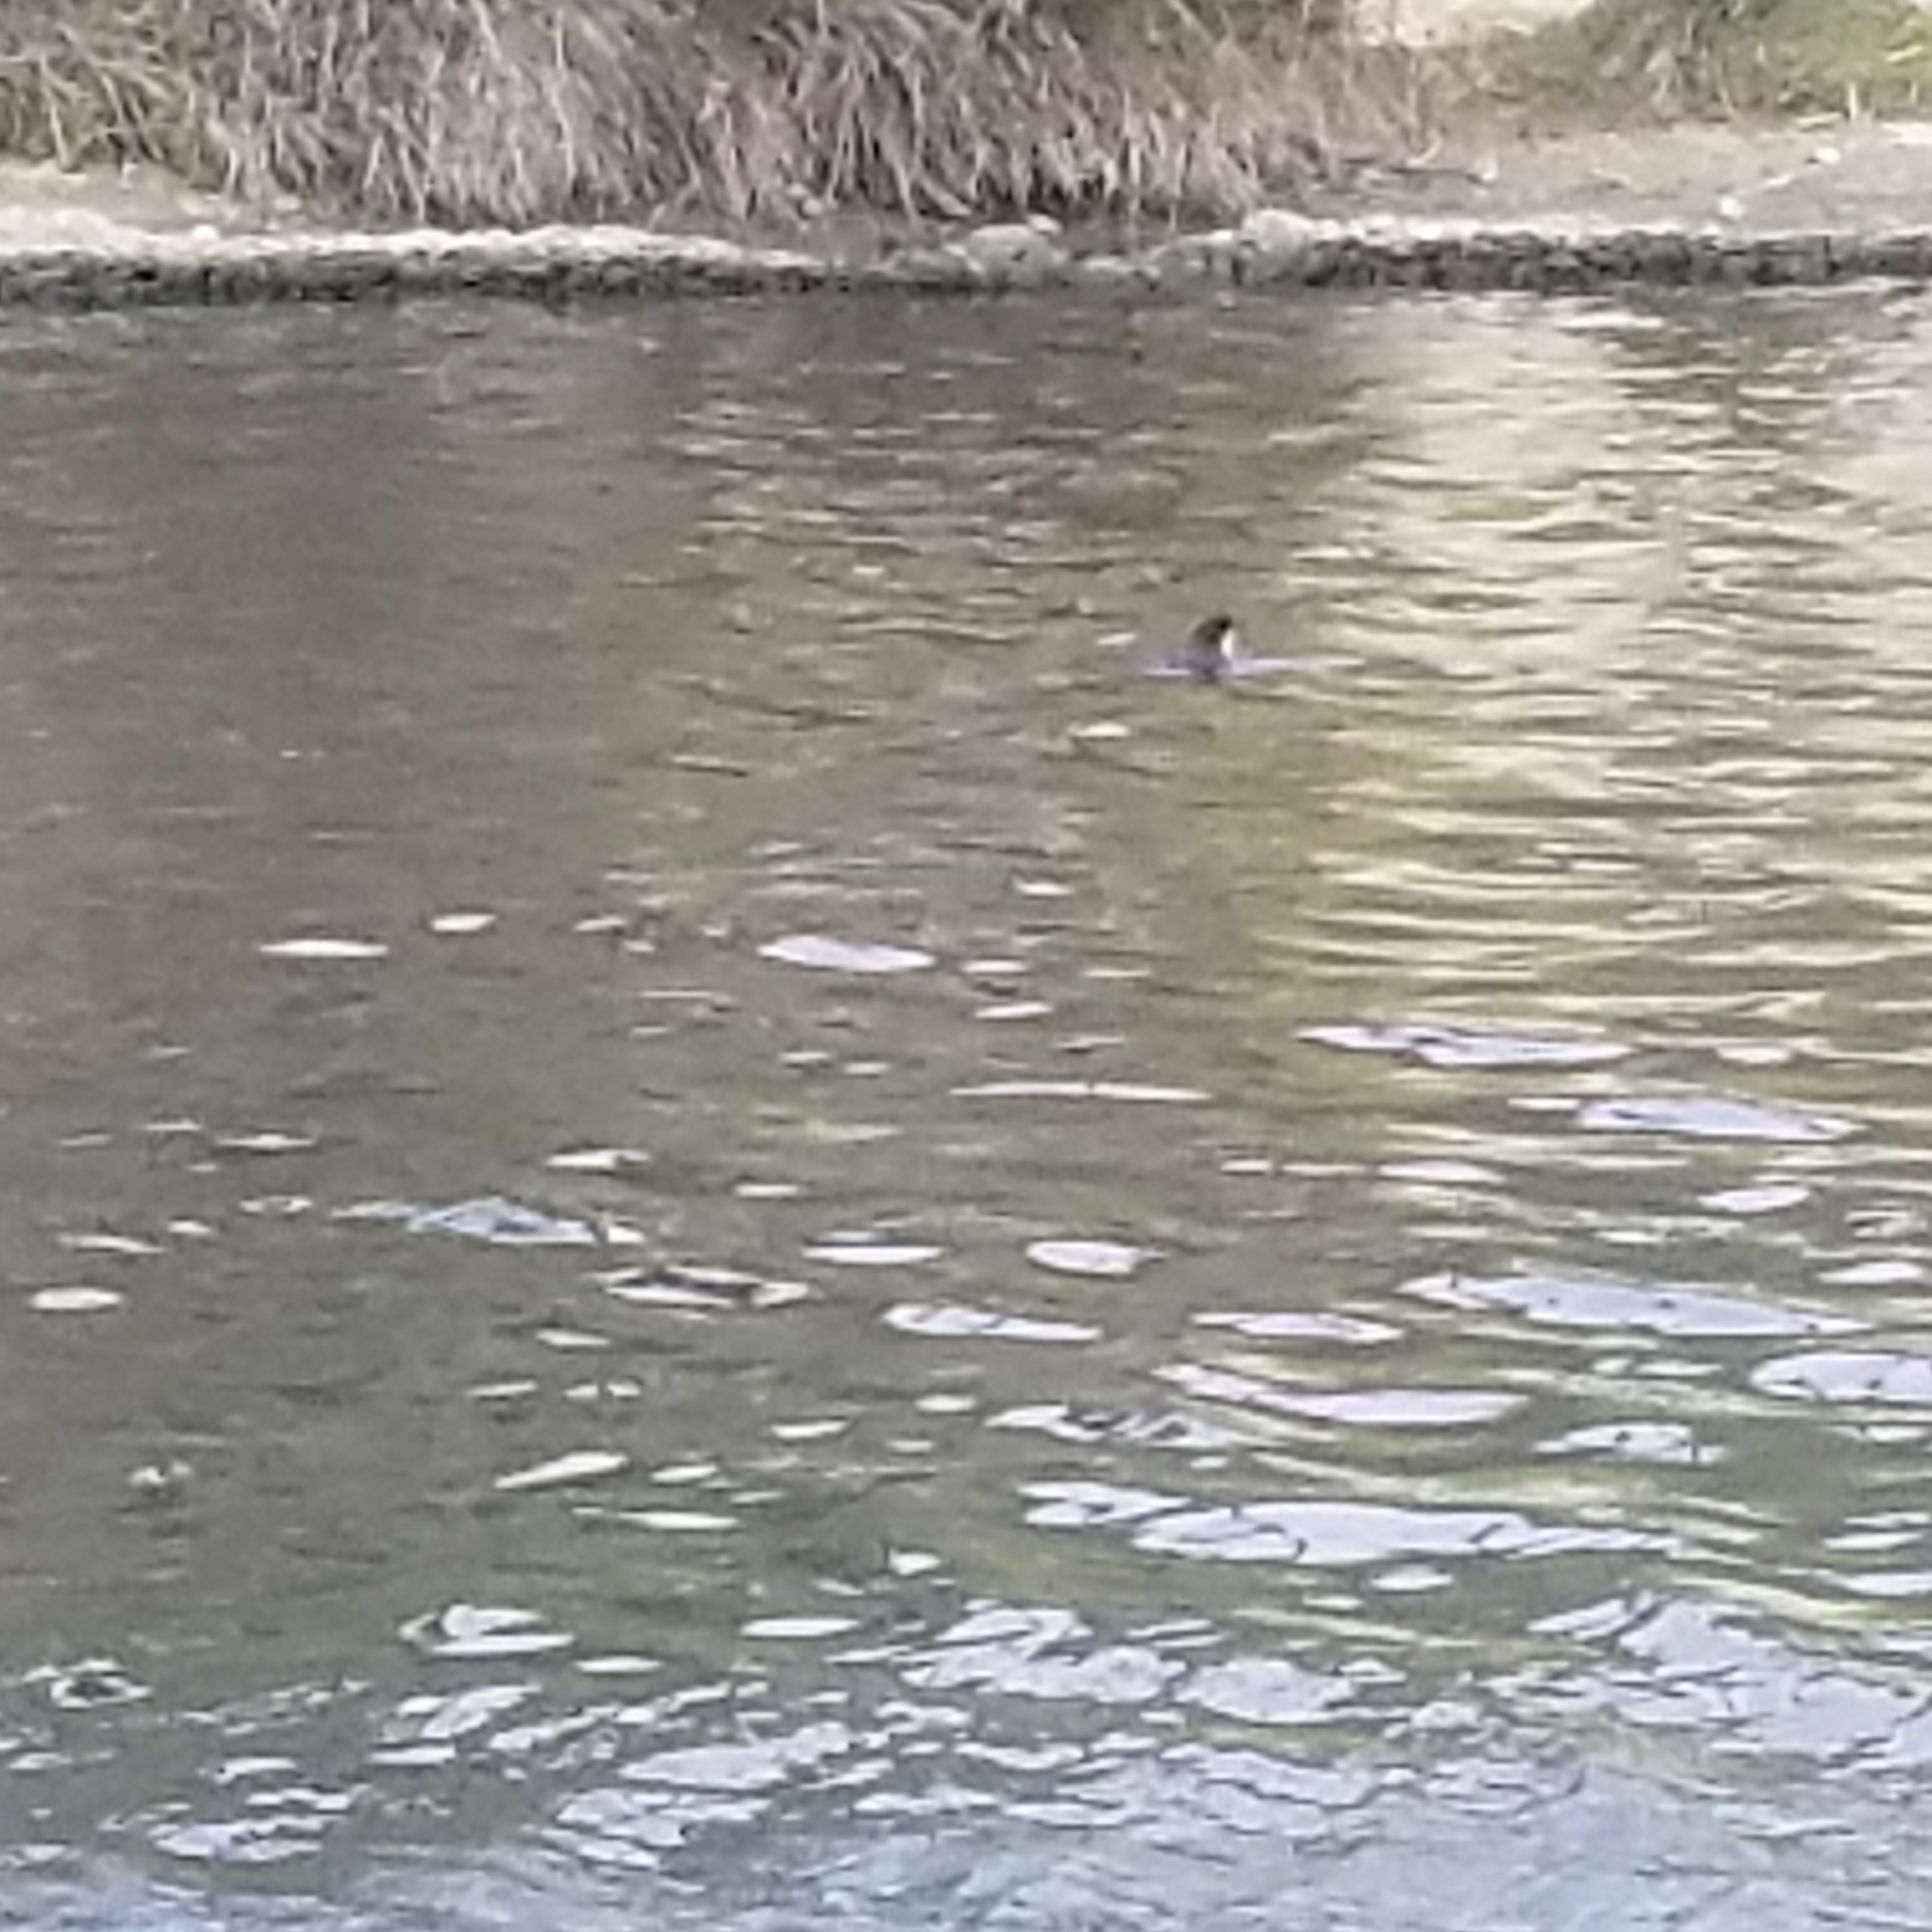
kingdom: Animalia
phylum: Chordata
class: Aves
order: Gruiformes
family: Rallidae
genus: Fulica
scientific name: Fulica atra
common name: Eurasian coot
